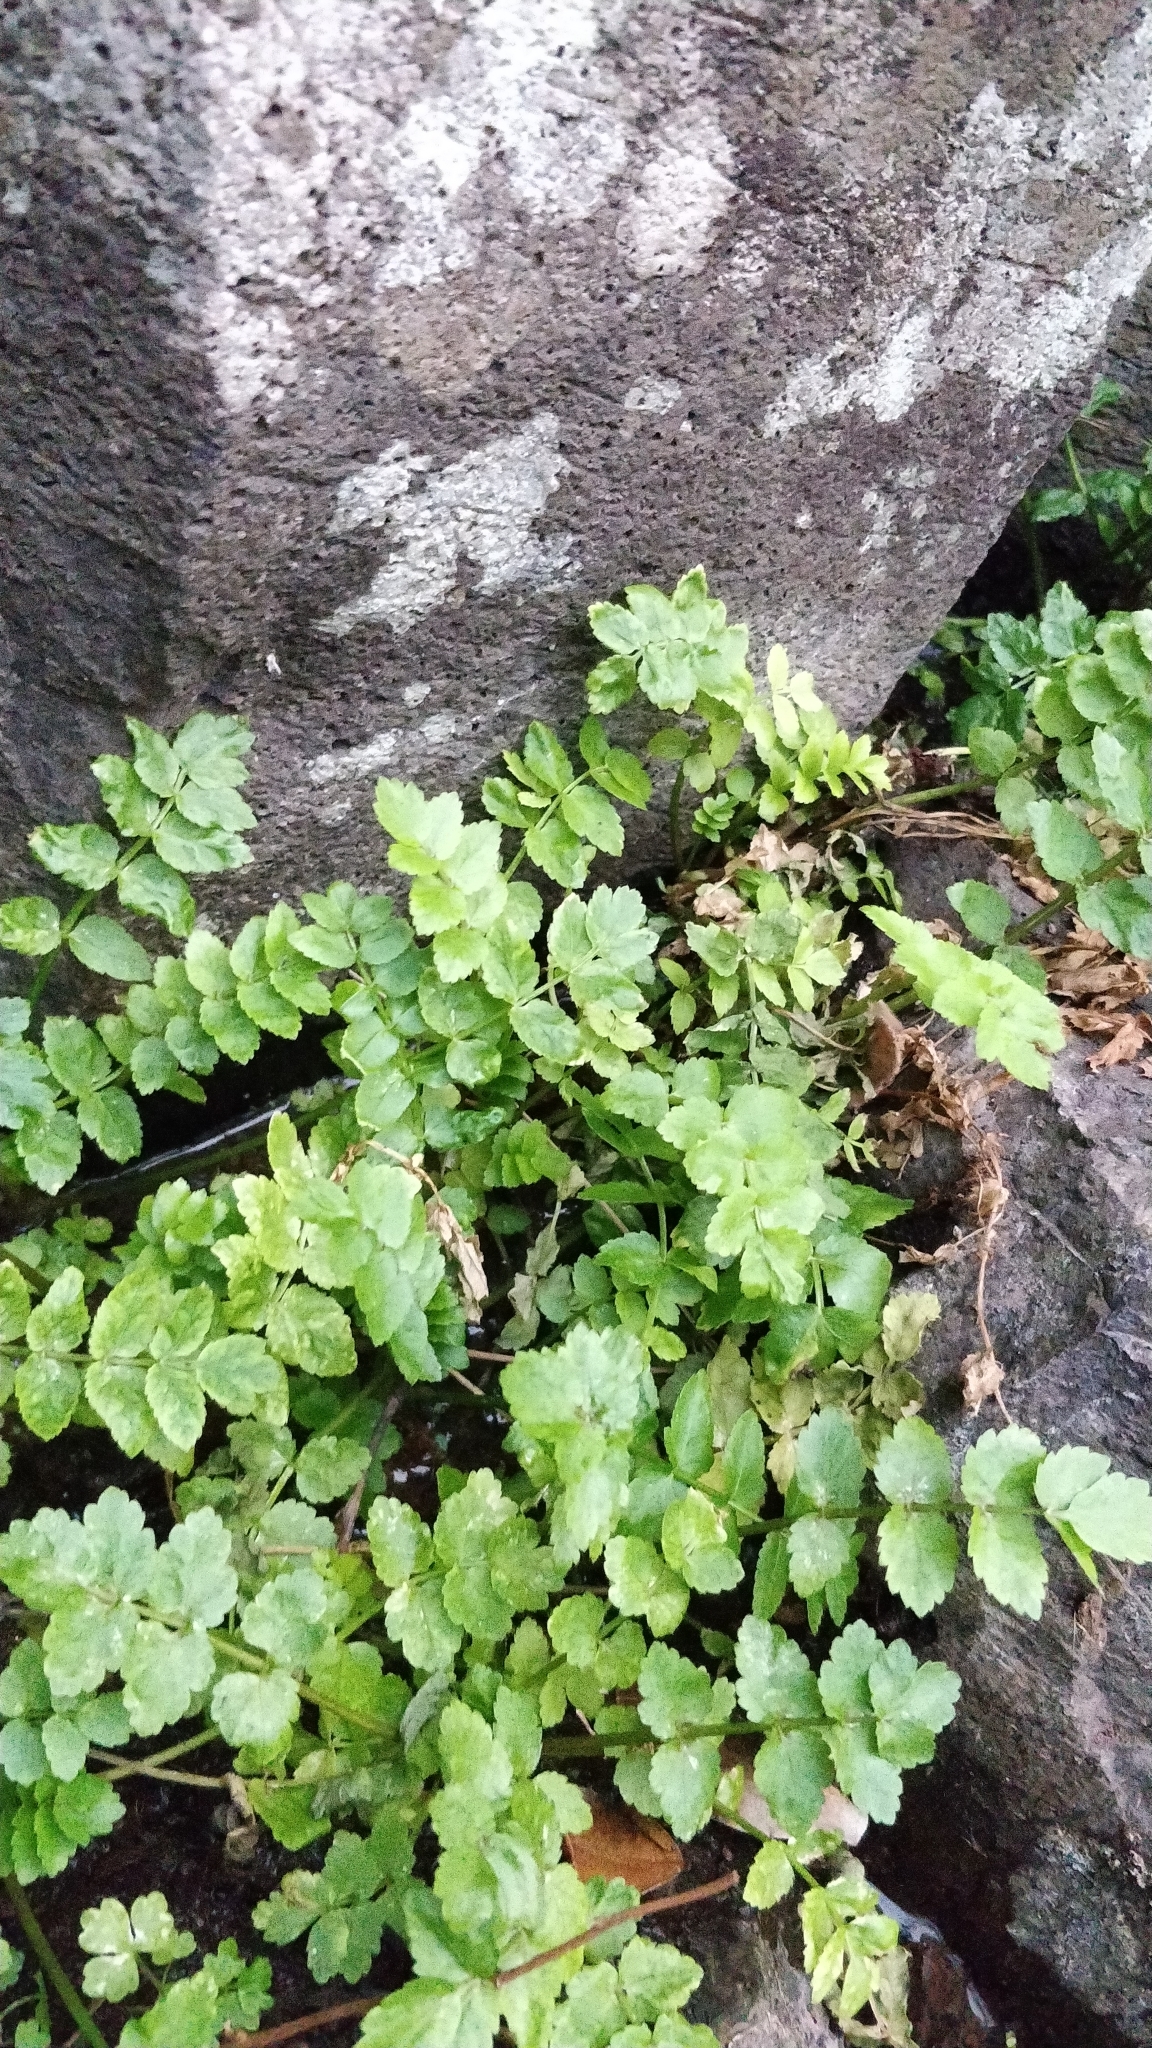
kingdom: Plantae
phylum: Tracheophyta
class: Magnoliopsida
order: Apiales
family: Apiaceae
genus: Helosciadium
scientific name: Helosciadium nodiflorum
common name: Fool's-watercress
